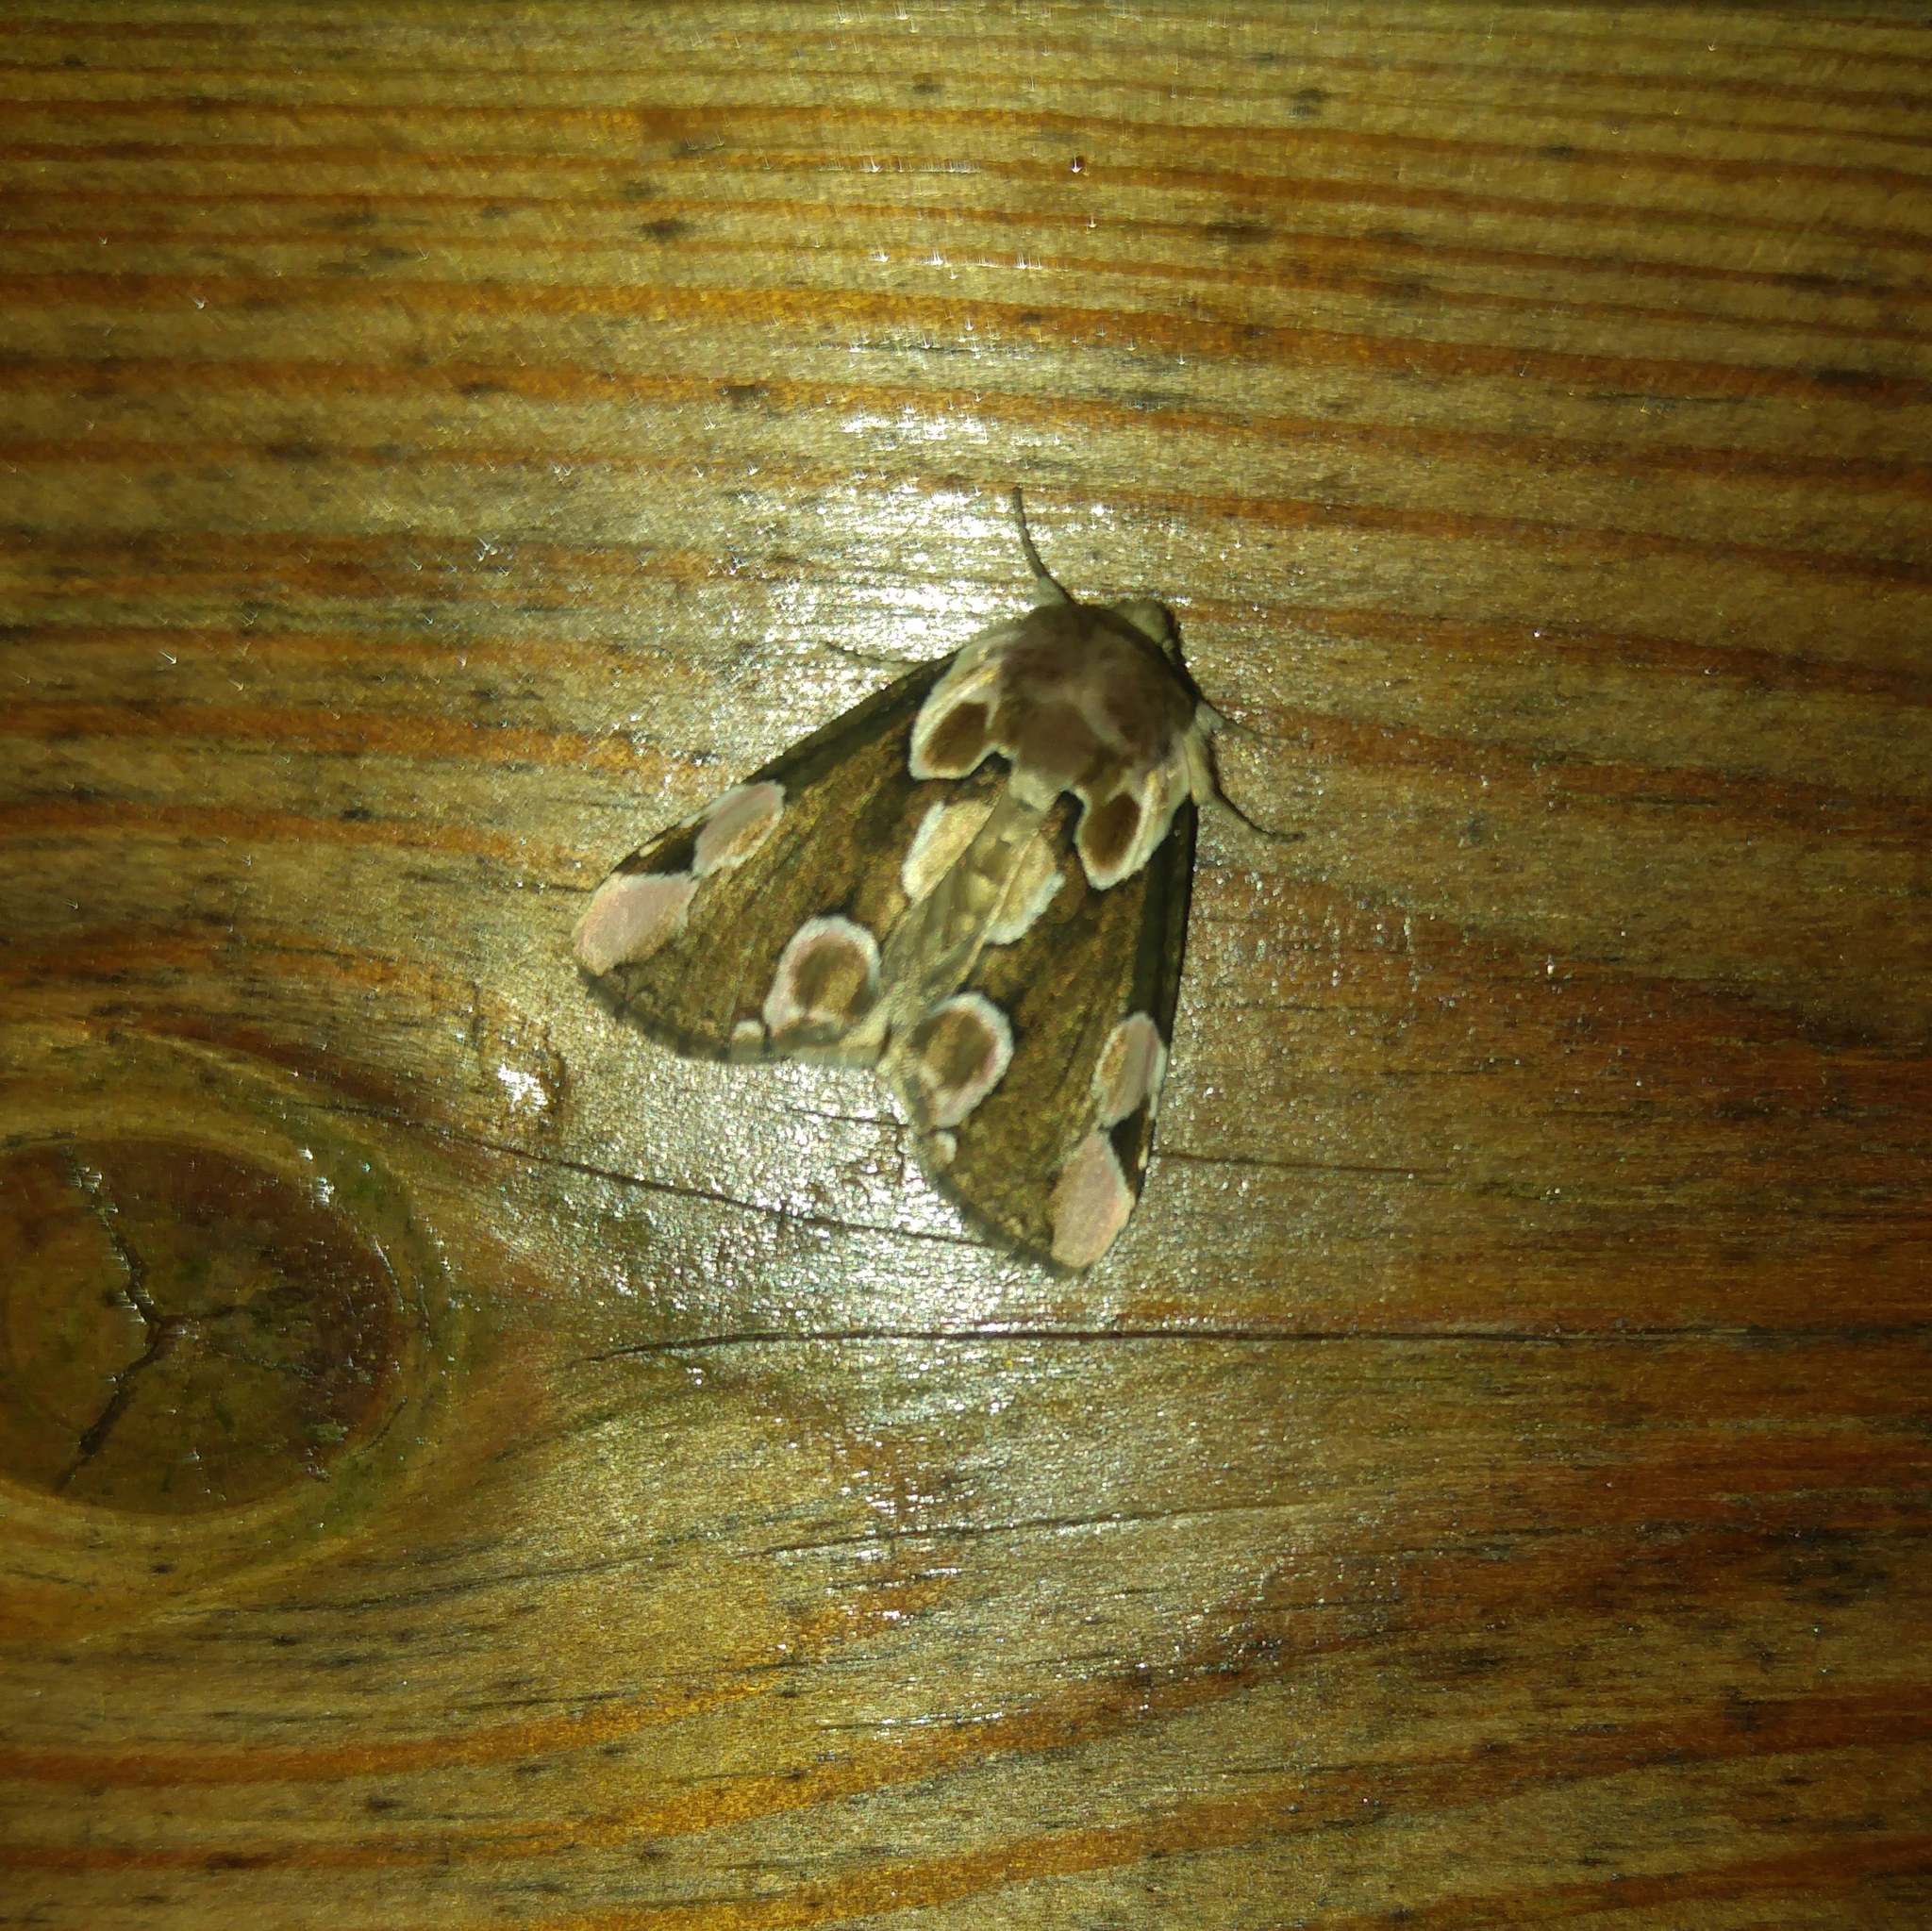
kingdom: Animalia
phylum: Arthropoda
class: Insecta
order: Lepidoptera
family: Drepanidae
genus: Thyatira
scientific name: Thyatira batis
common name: Peach blossom
